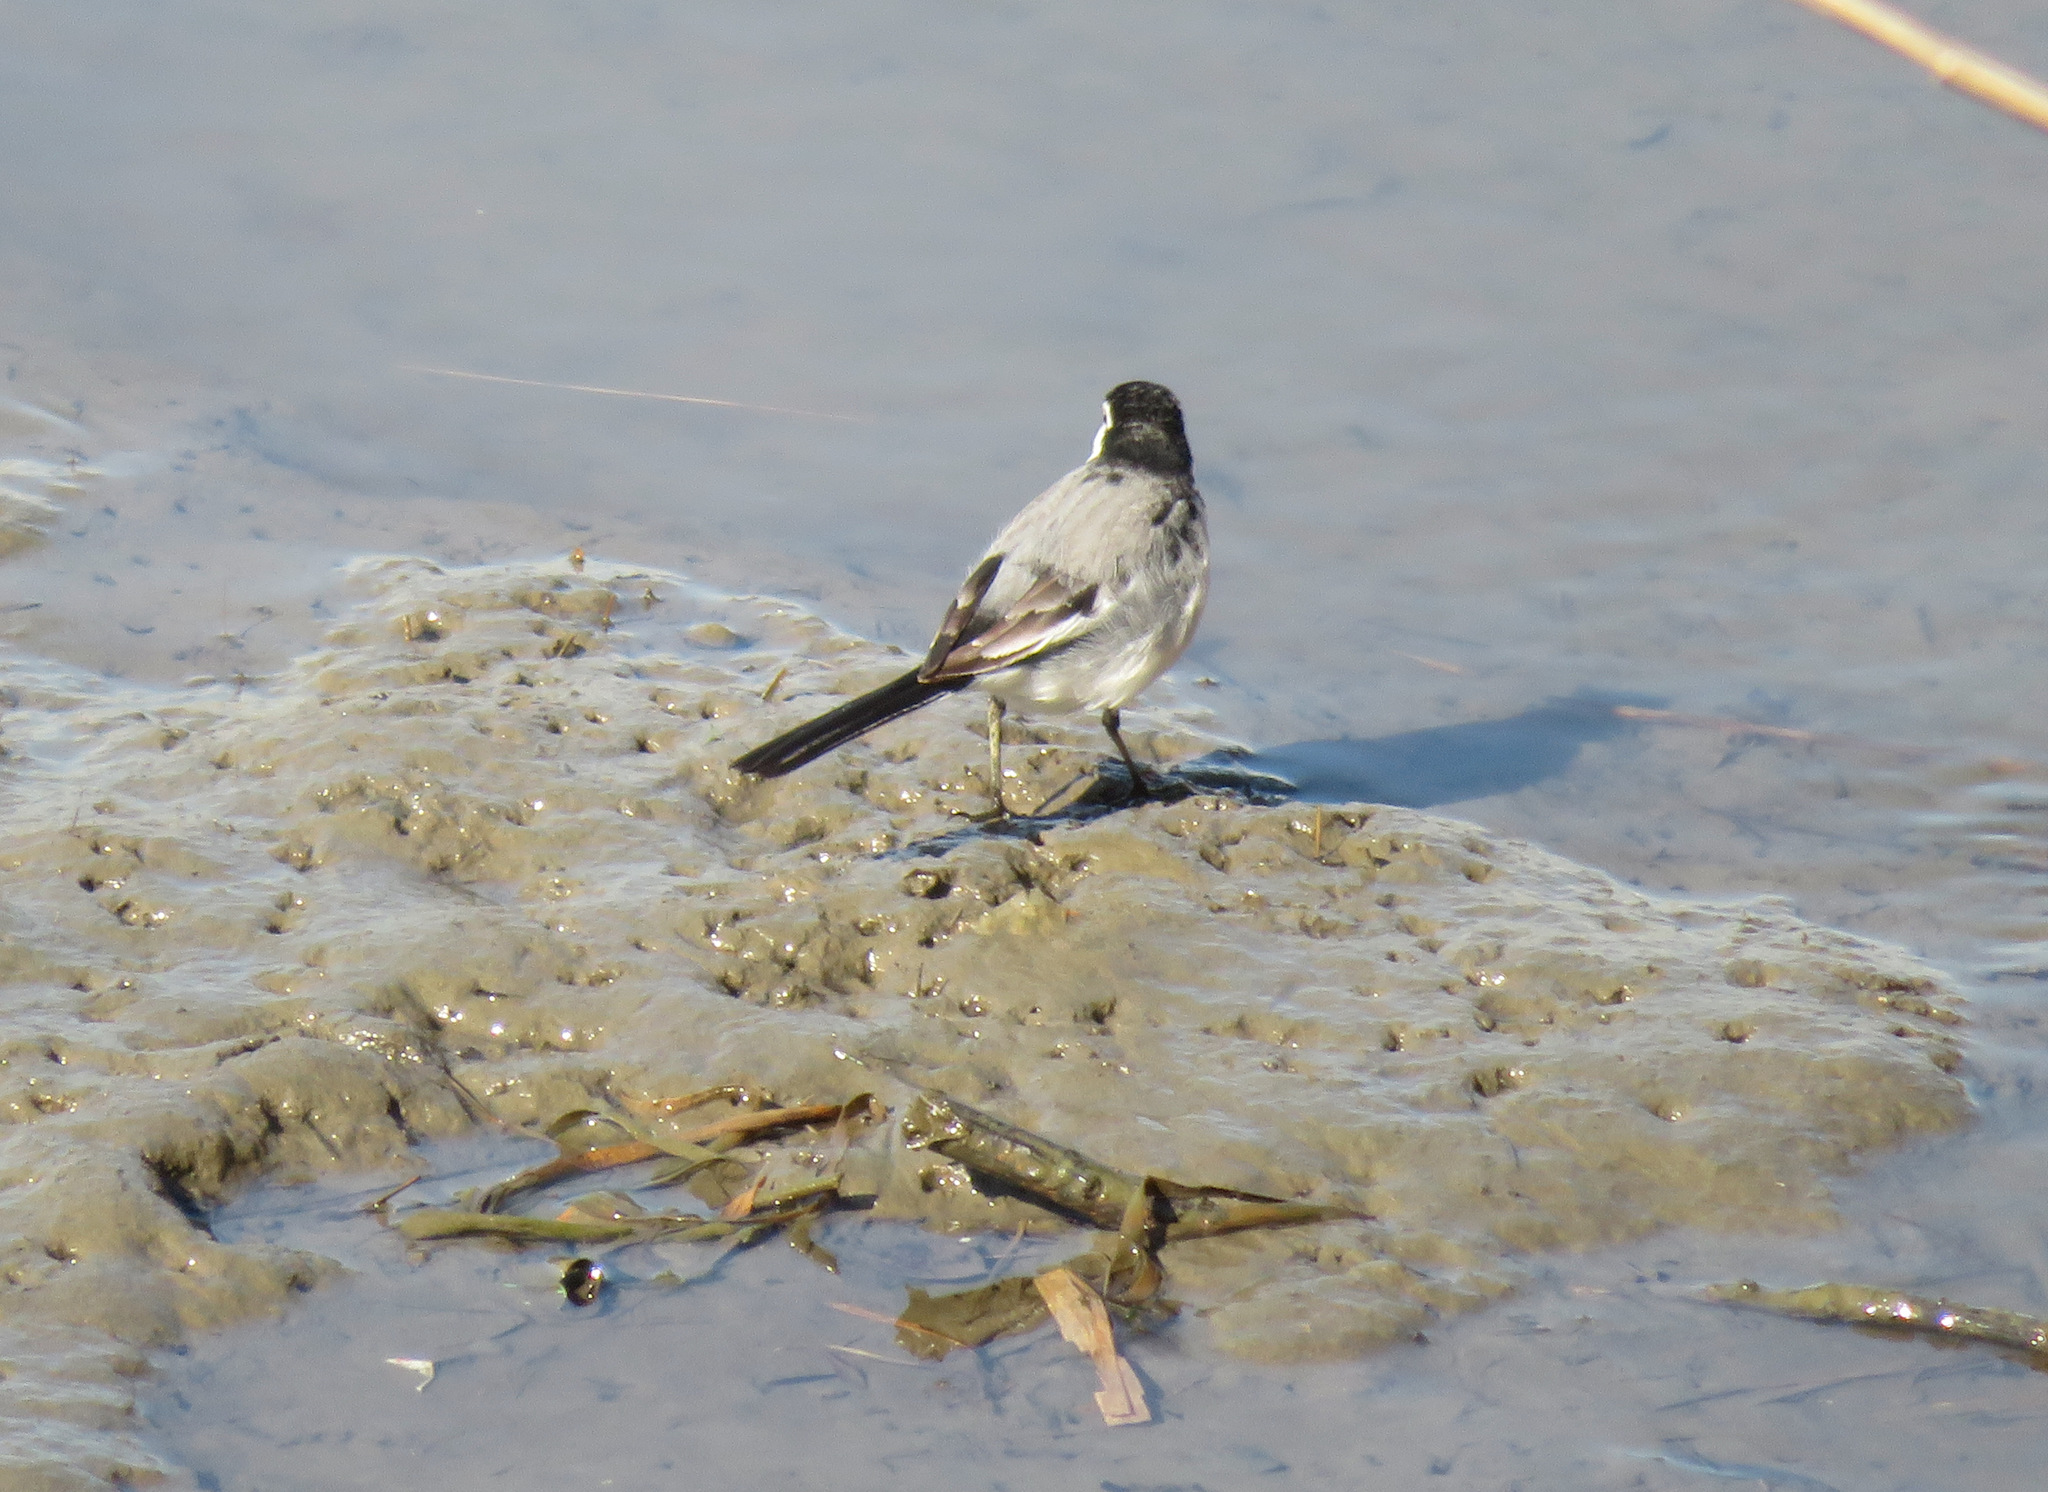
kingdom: Animalia
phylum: Chordata
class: Aves
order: Passeriformes
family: Motacillidae
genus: Motacilla
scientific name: Motacilla alba
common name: White wagtail
